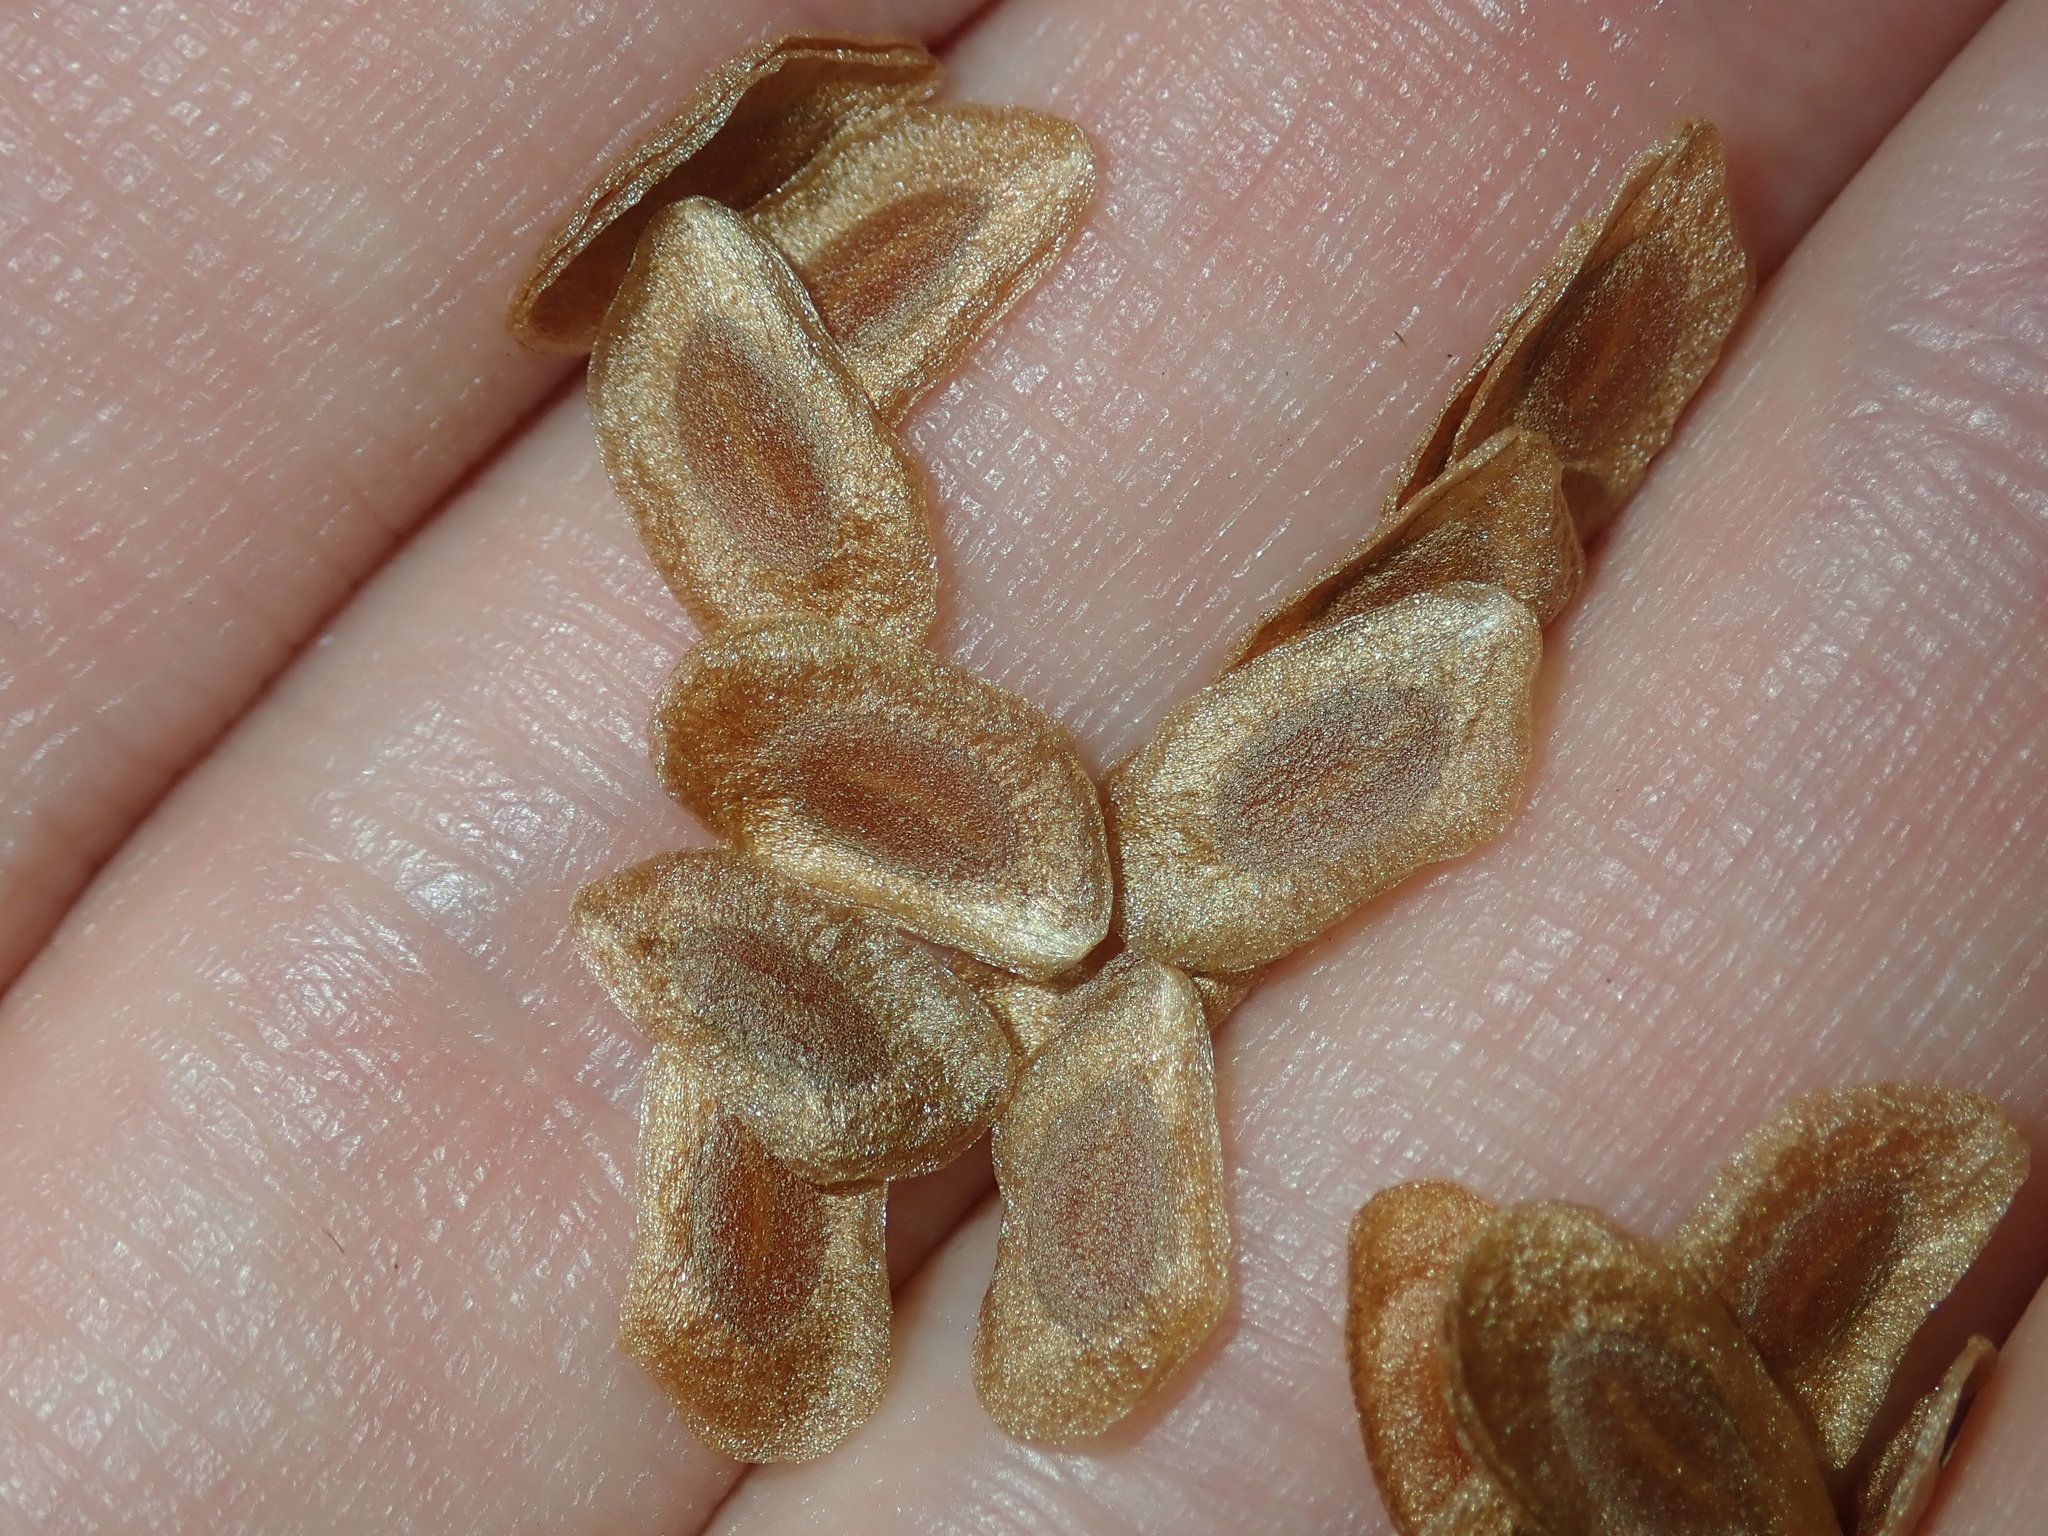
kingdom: Plantae
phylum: Tracheophyta
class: Liliopsida
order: Liliales
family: Liliaceae
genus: Lilium
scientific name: Lilium formosanum
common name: Formosa lily
